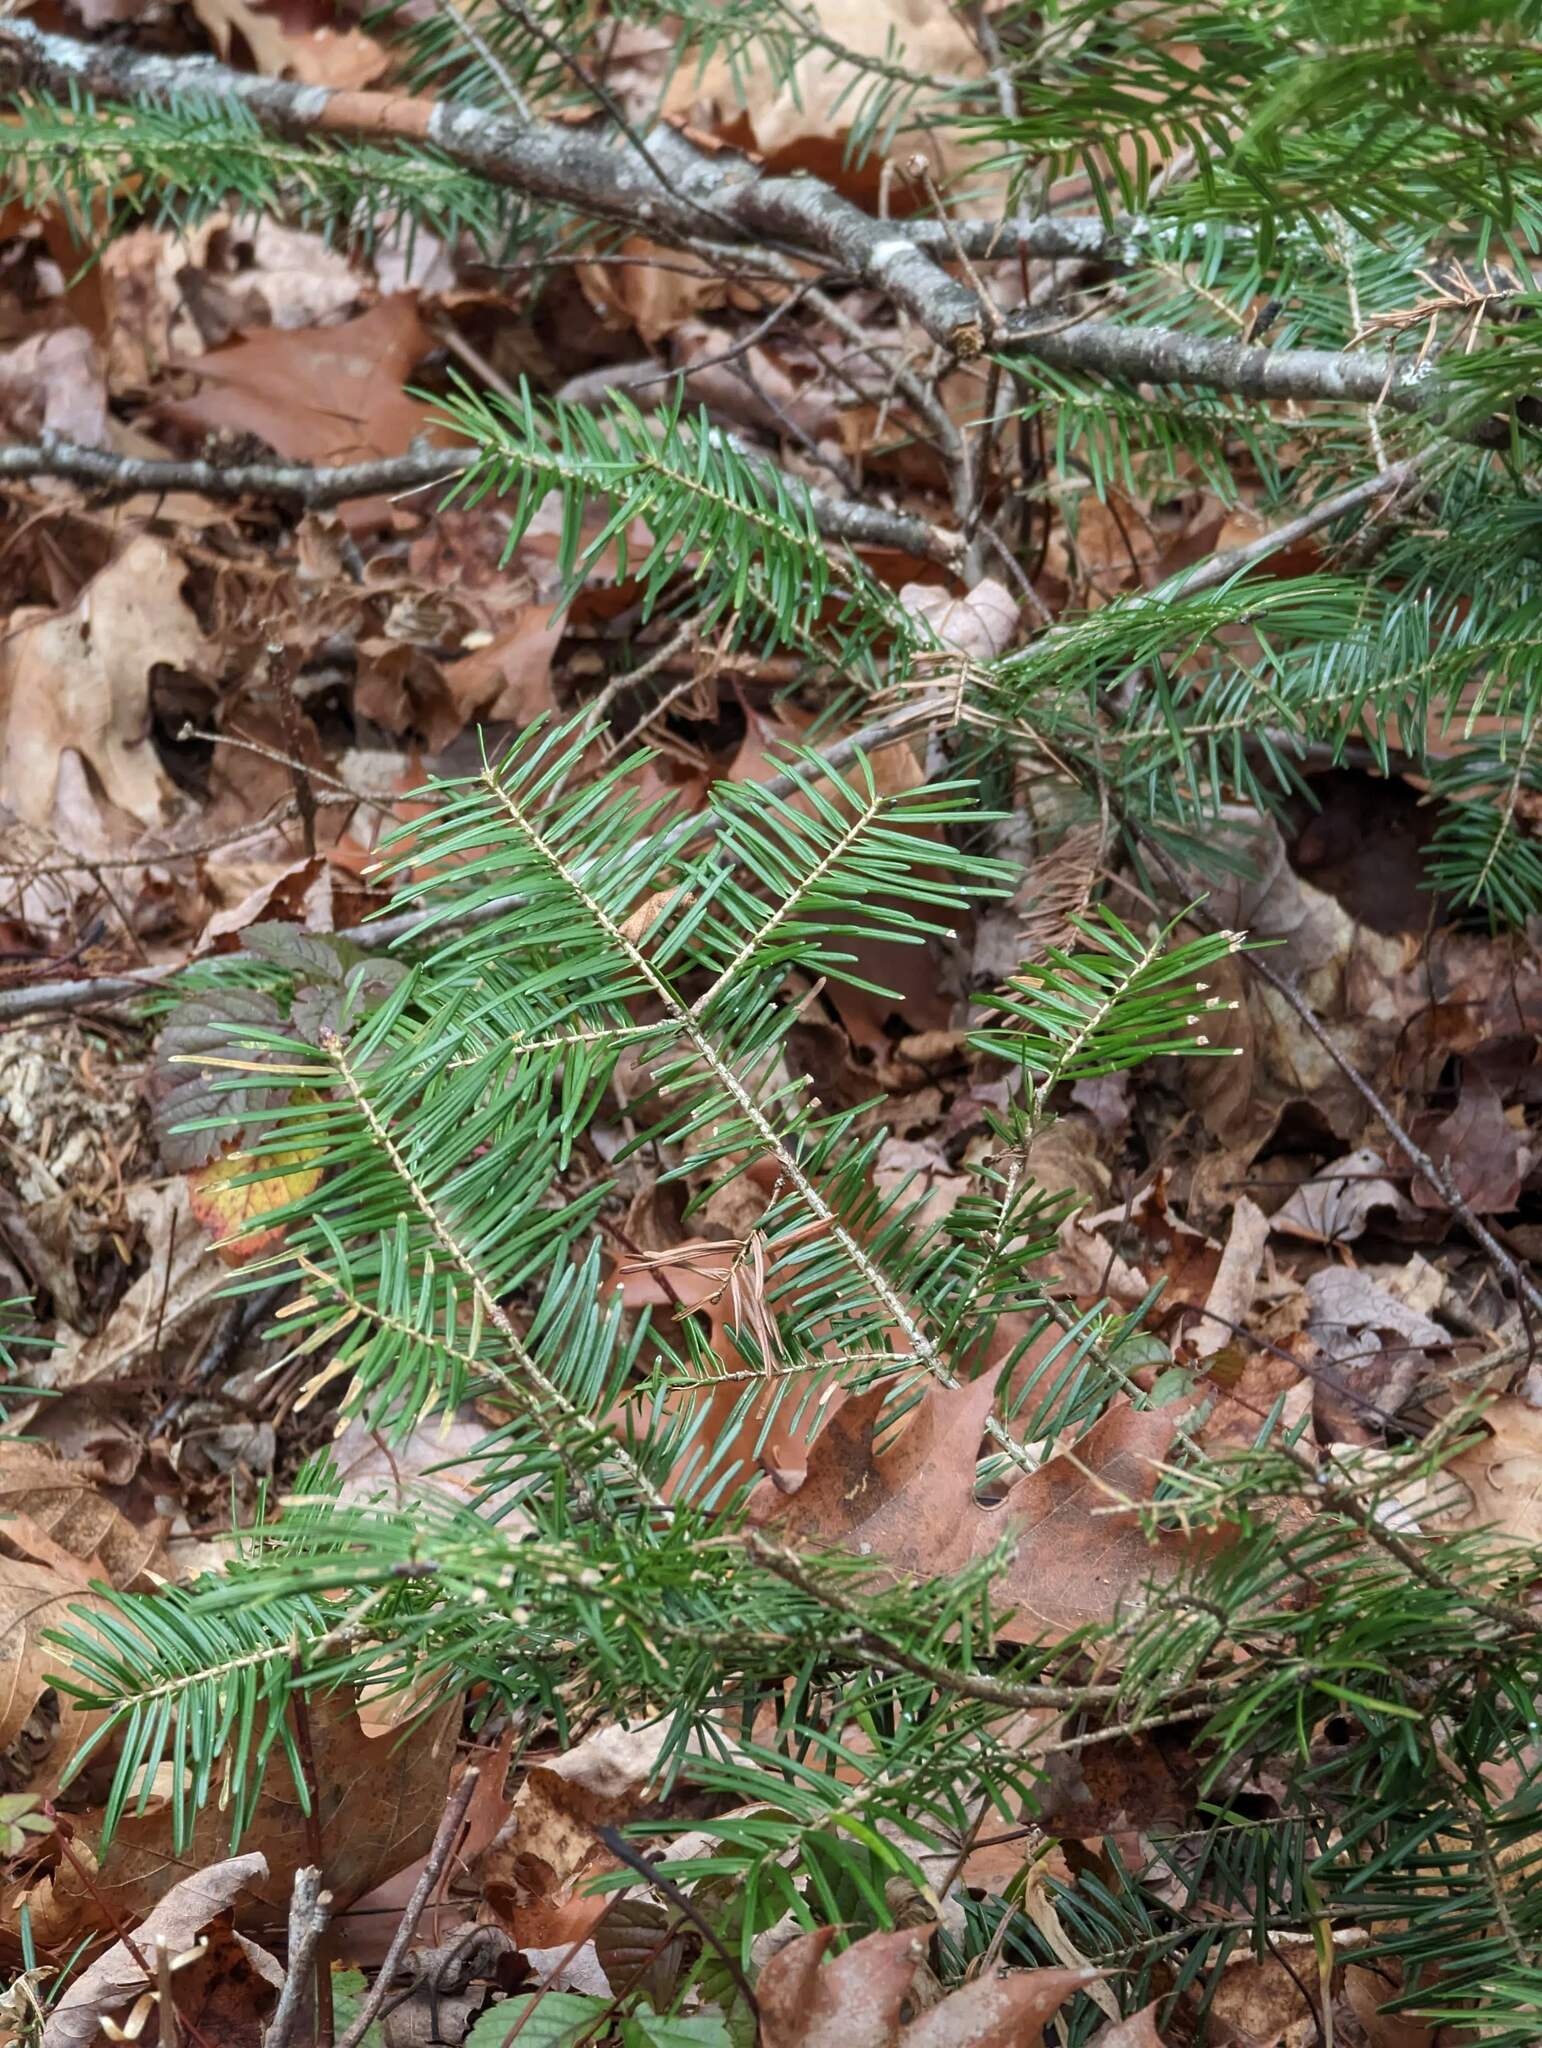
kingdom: Plantae
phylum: Tracheophyta
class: Pinopsida
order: Pinales
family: Pinaceae
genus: Abies
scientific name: Abies balsamea
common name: Balsam fir
